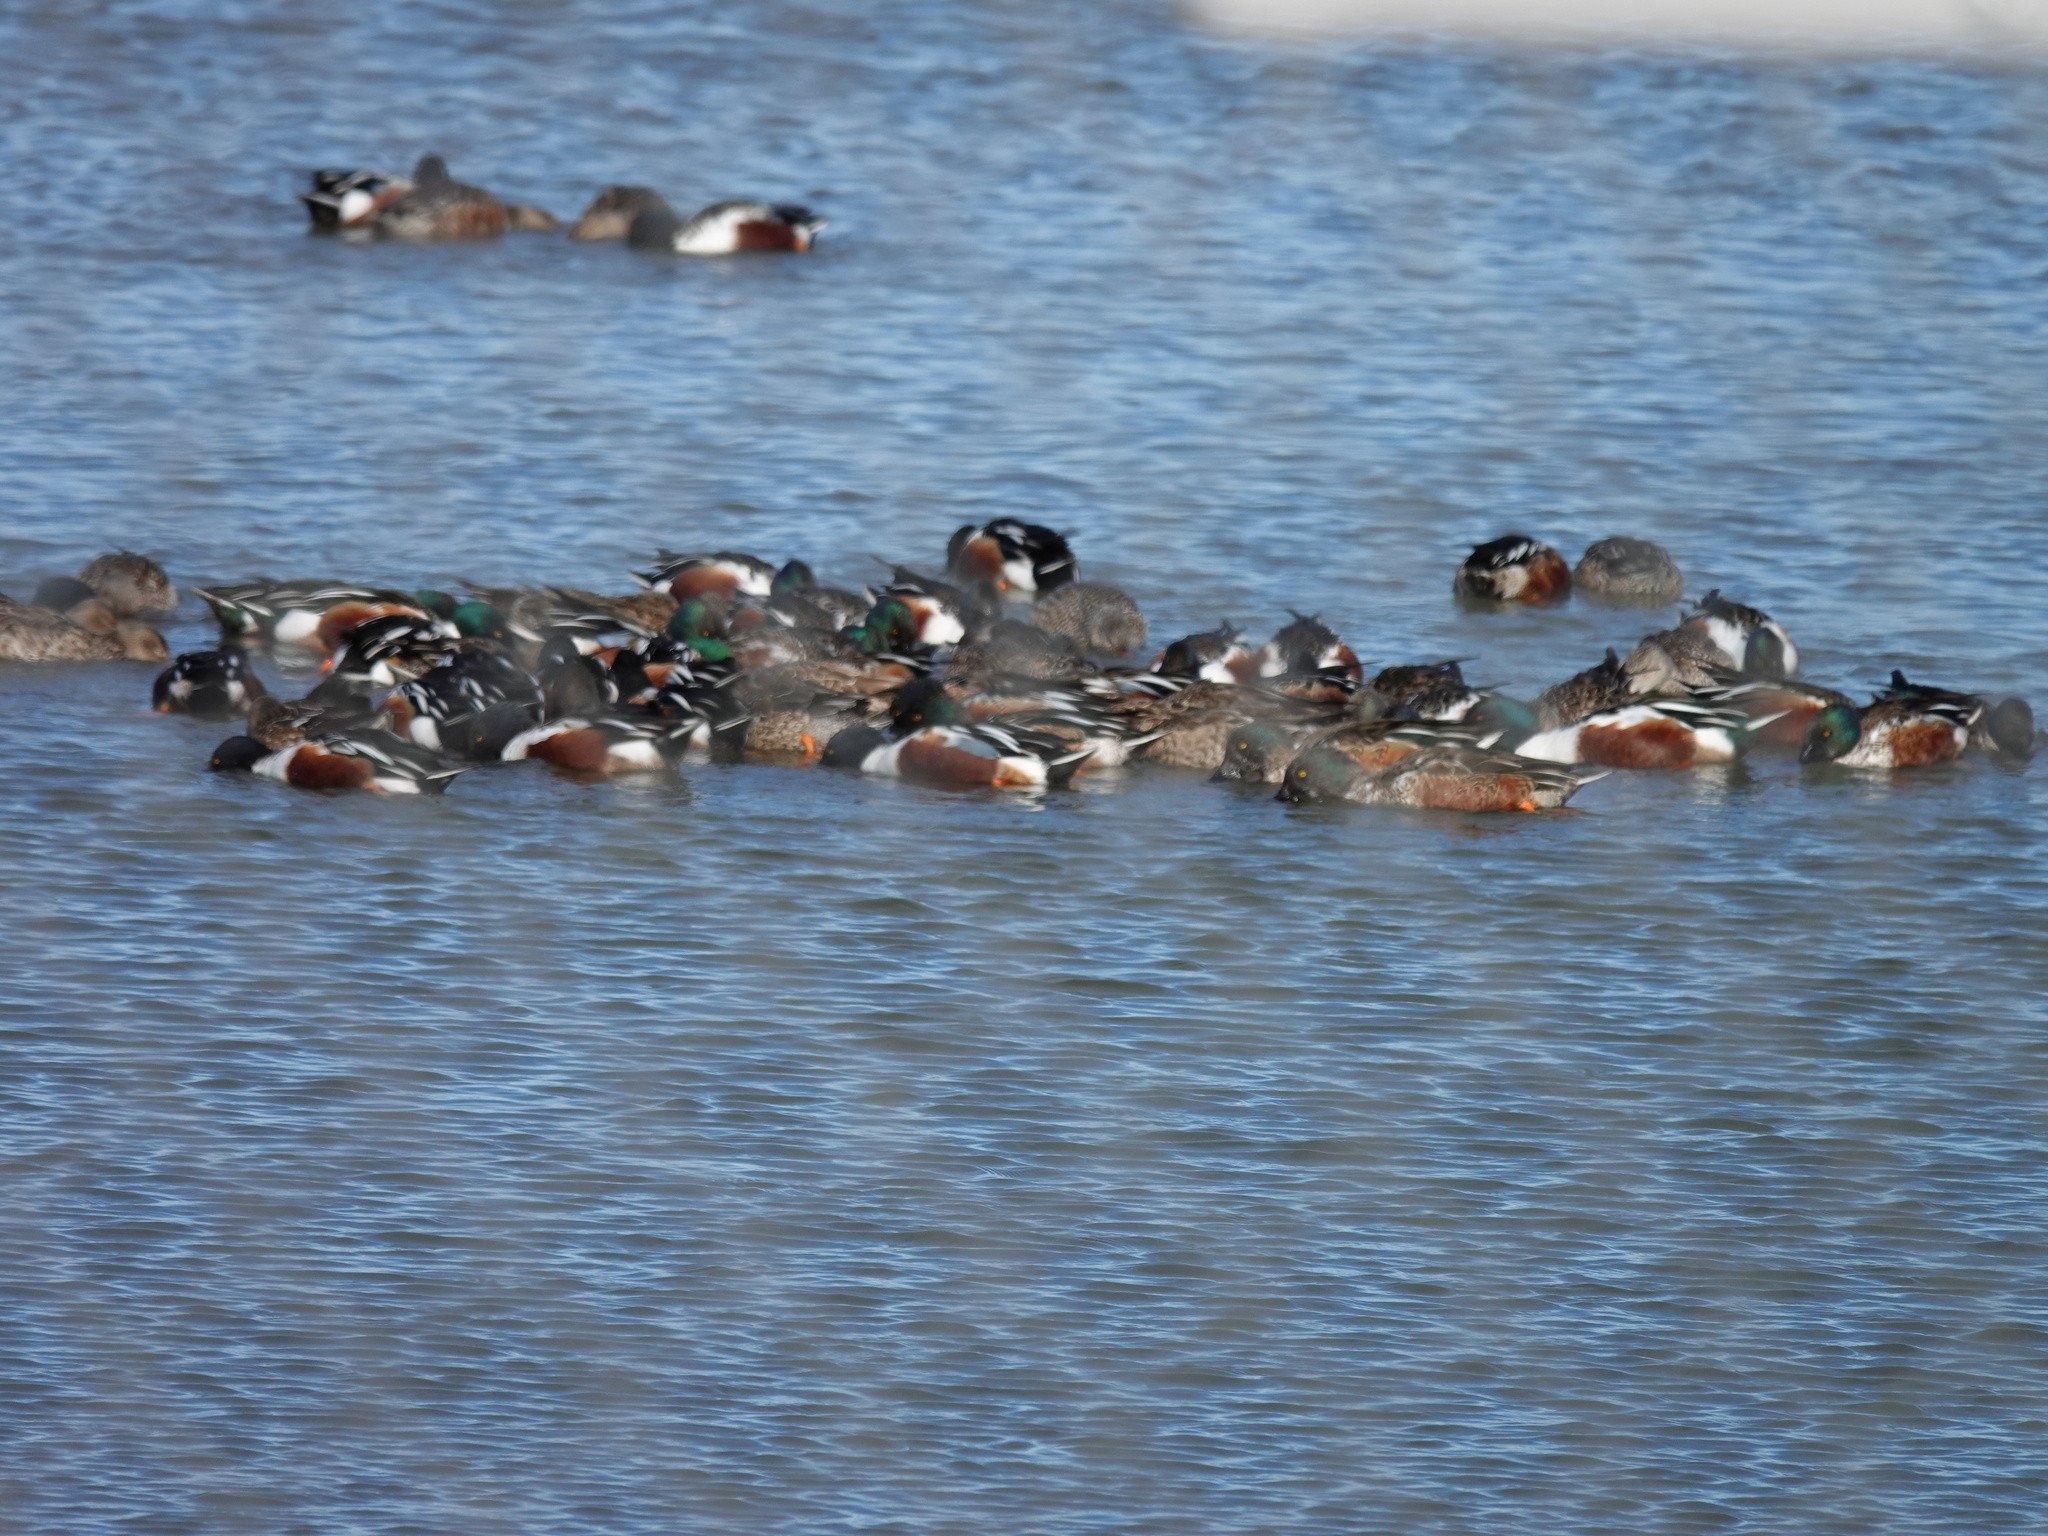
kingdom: Animalia
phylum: Chordata
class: Aves
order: Anseriformes
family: Anatidae
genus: Spatula
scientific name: Spatula clypeata
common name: Northern shoveler
